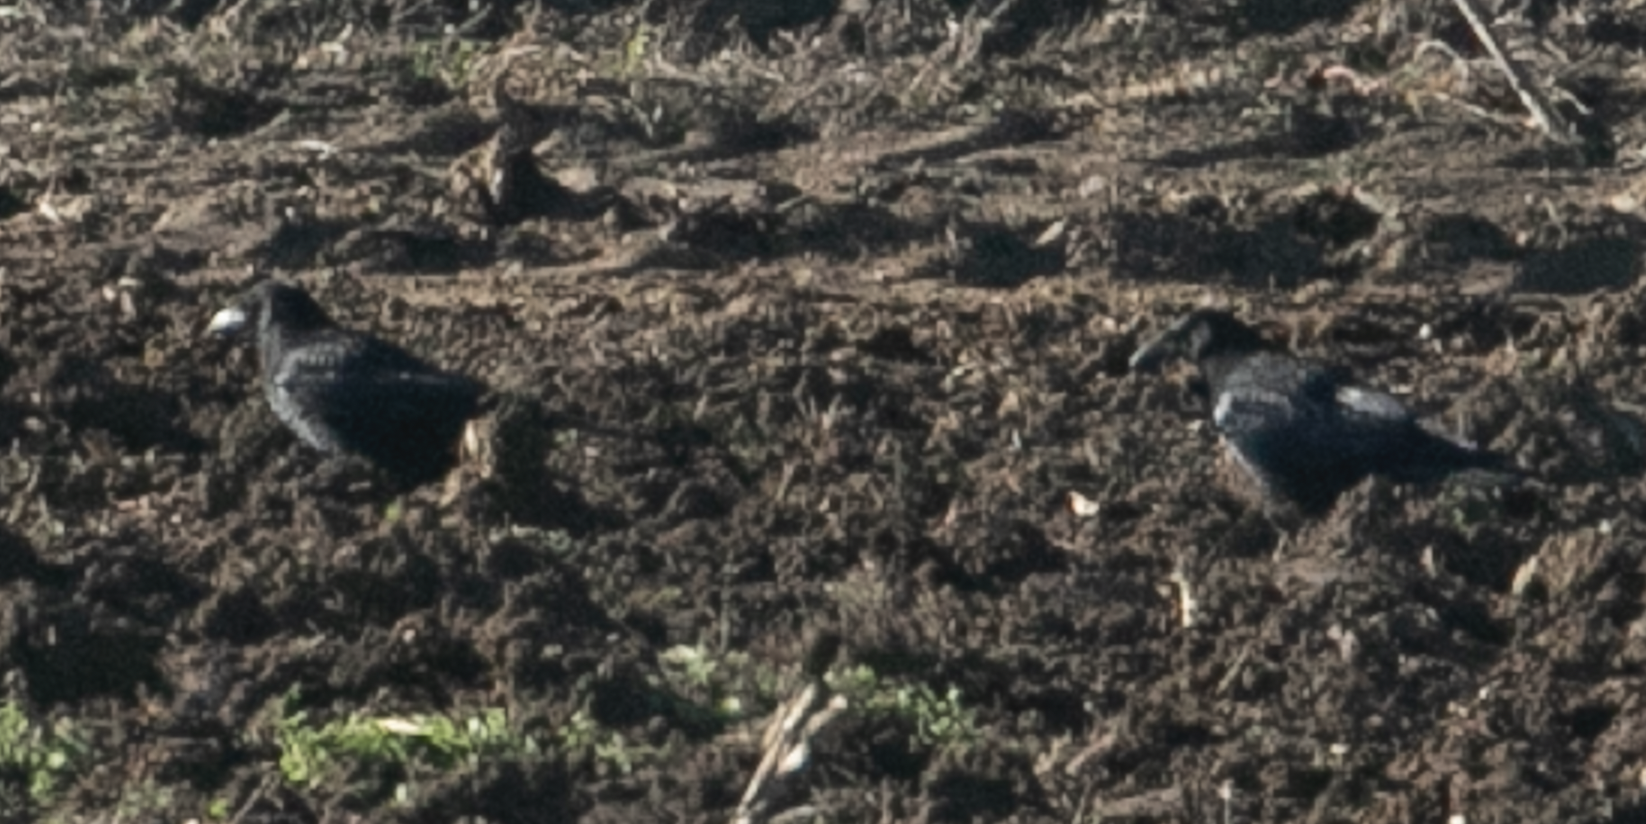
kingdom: Animalia
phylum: Chordata
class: Aves
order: Passeriformes
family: Corvidae
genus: Corvus
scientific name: Corvus
